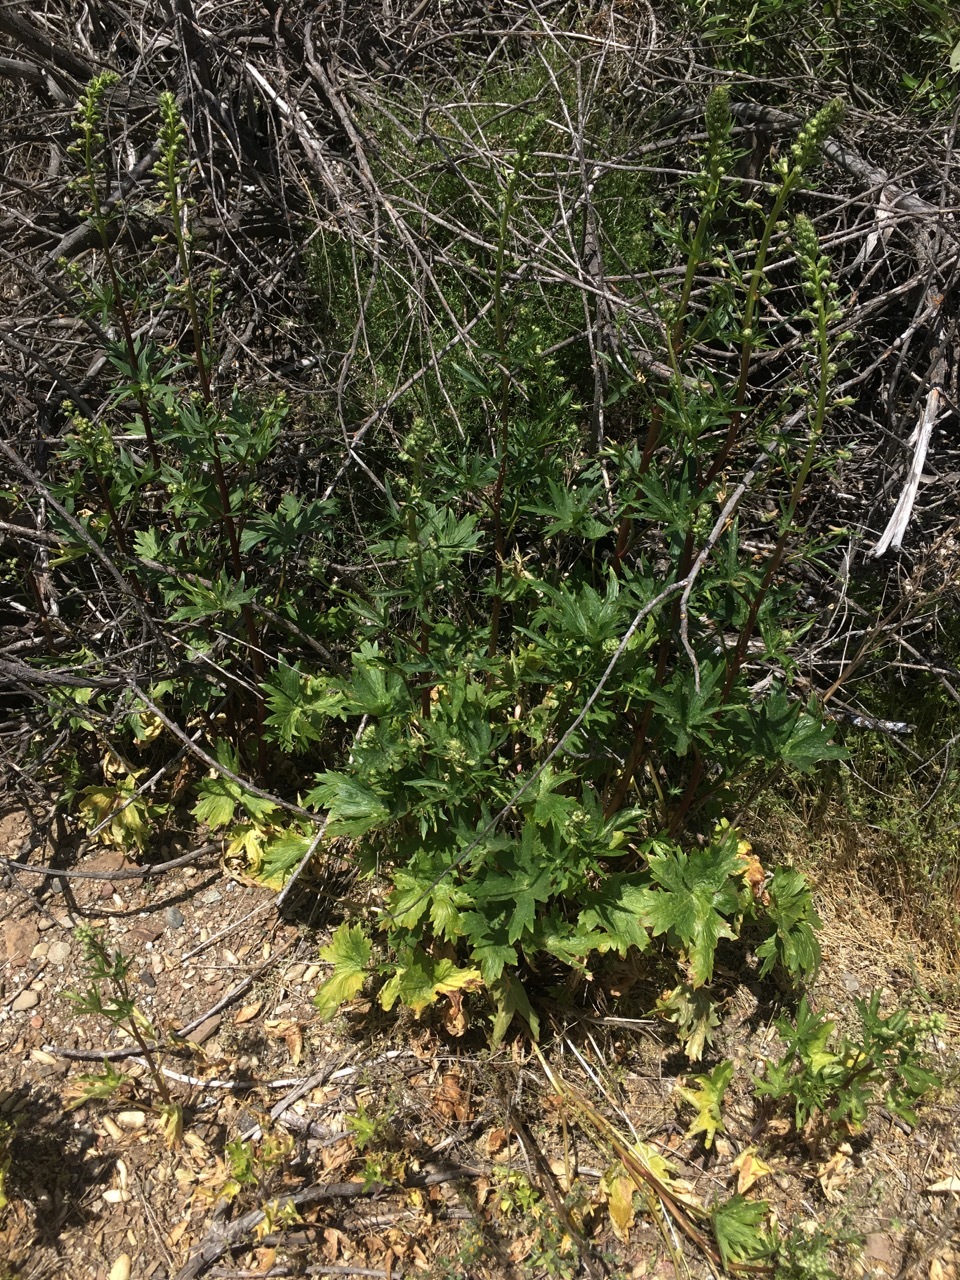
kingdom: Plantae
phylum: Tracheophyta
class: Magnoliopsida
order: Ranunculales
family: Ranunculaceae
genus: Delphinium
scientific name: Delphinium californicum
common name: California larkspur
